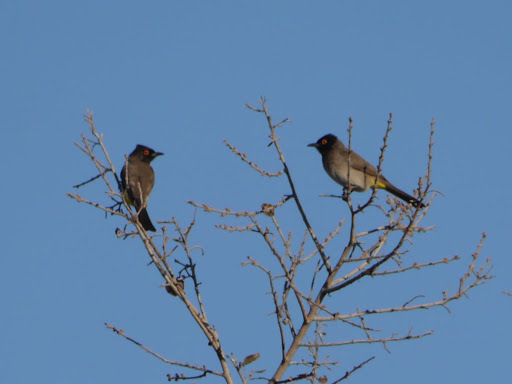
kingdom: Animalia
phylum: Chordata
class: Aves
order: Passeriformes
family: Pycnonotidae
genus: Pycnonotus
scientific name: Pycnonotus nigricans
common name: African red-eyed bulbul
